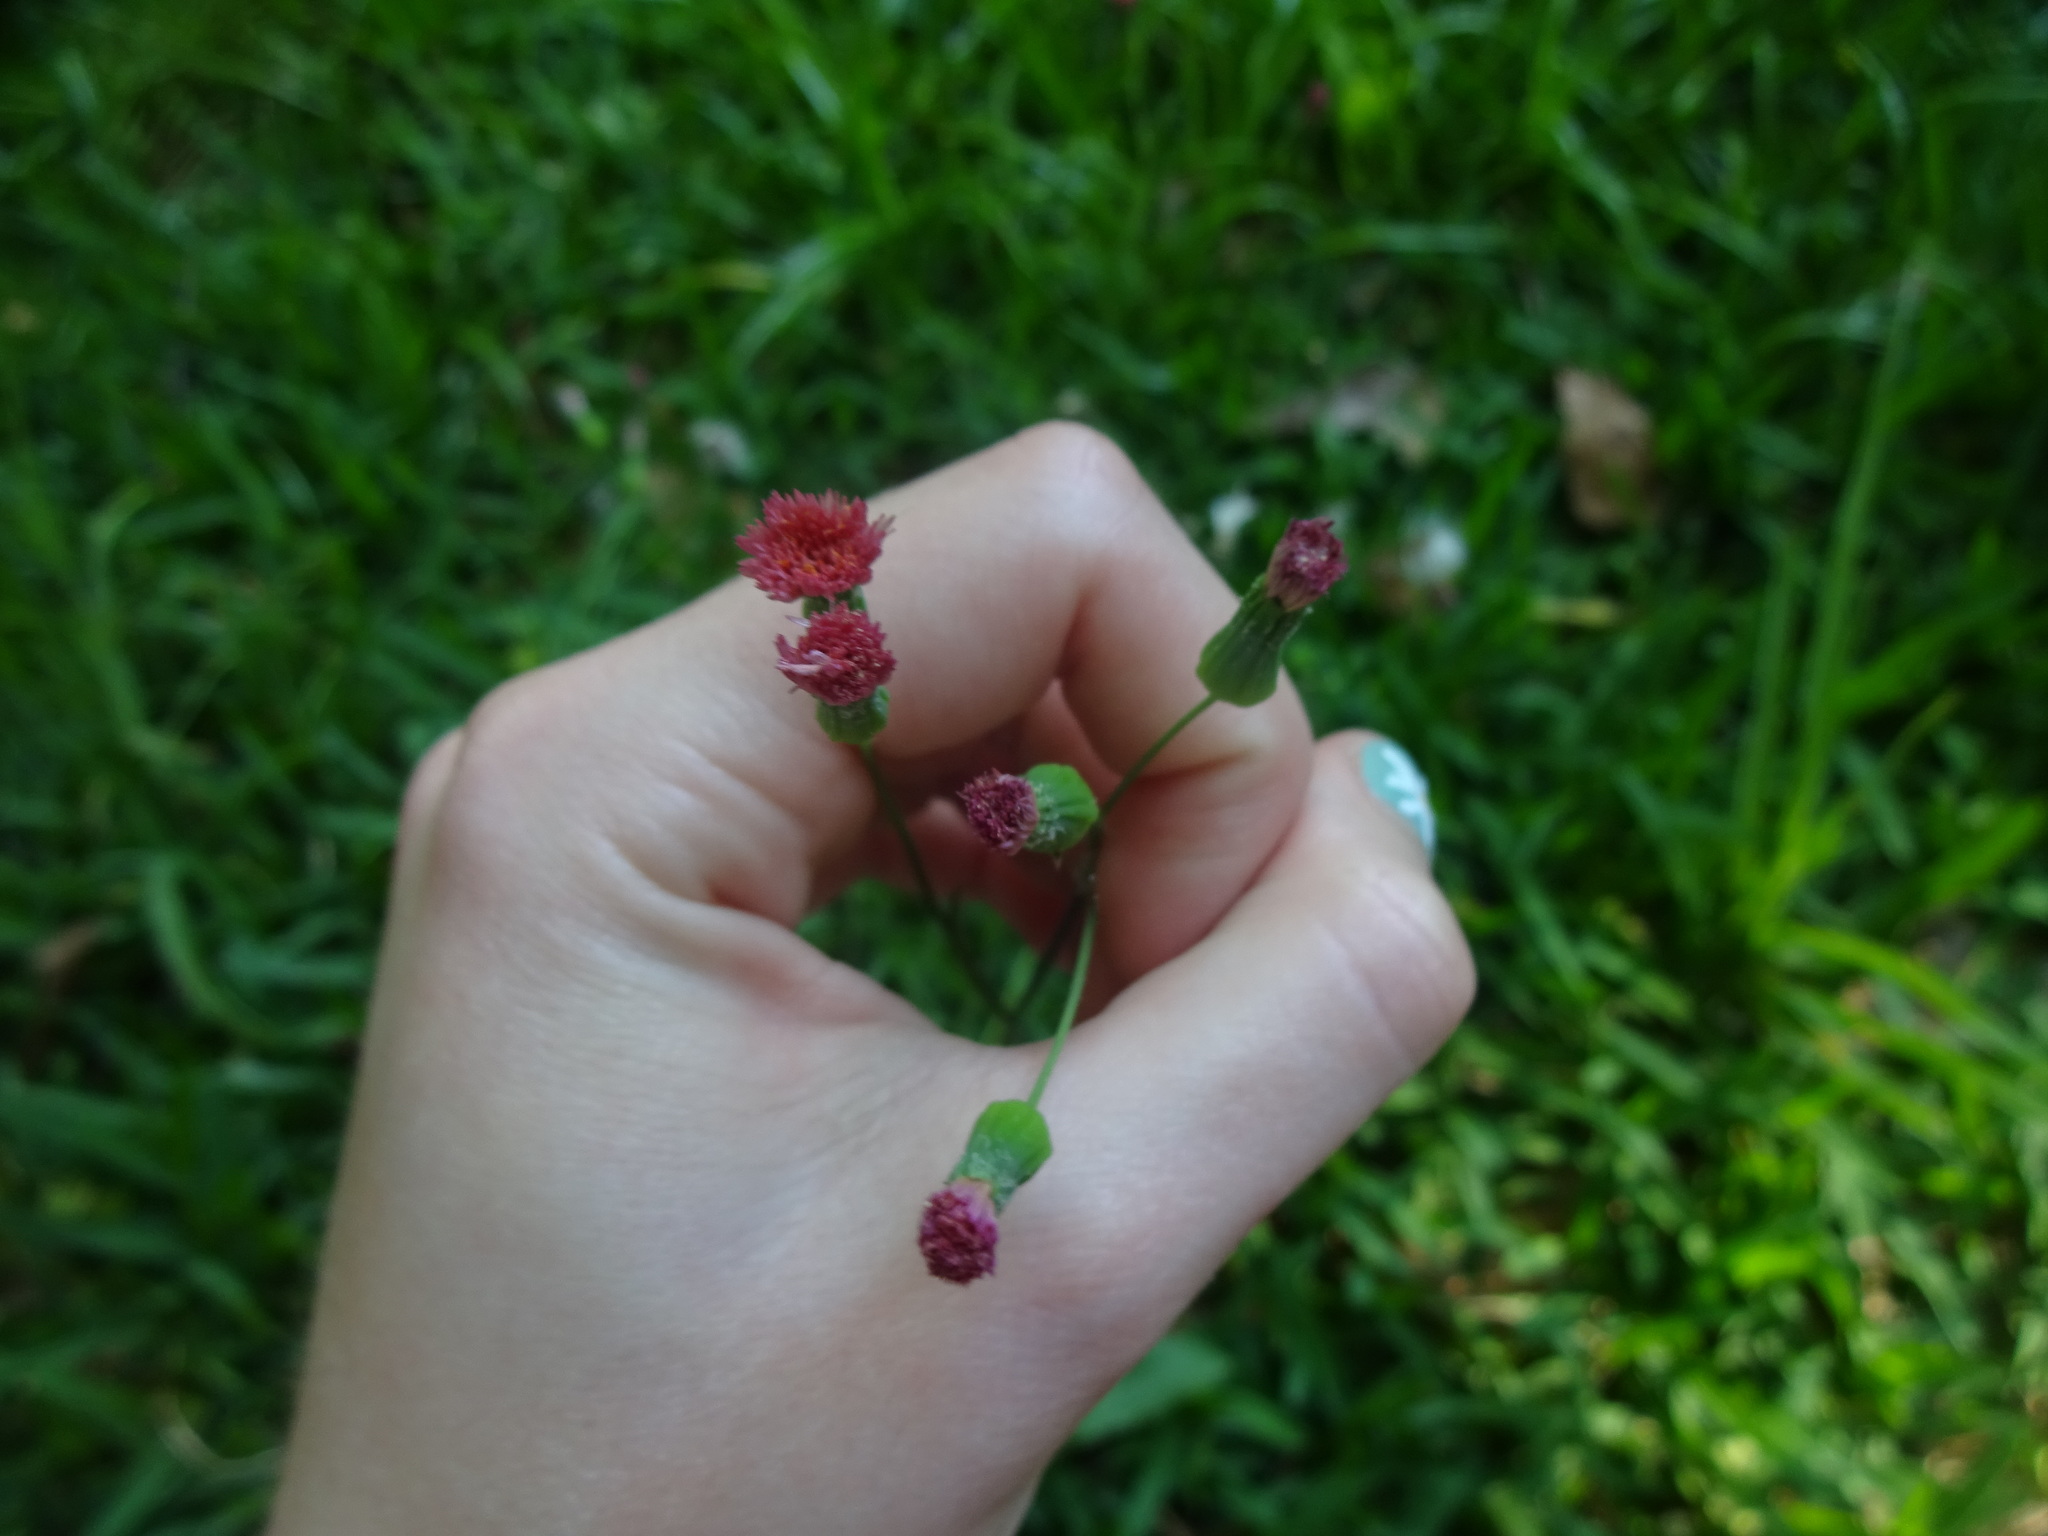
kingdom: Plantae
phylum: Tracheophyta
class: Magnoliopsida
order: Asterales
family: Asteraceae
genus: Emilia
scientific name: Emilia fosbergii
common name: Florida tasselflower
